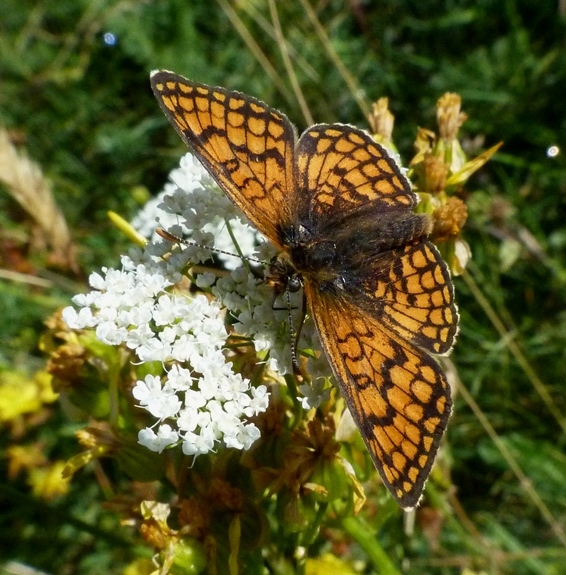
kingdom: Animalia
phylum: Arthropoda
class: Insecta
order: Lepidoptera
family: Nymphalidae
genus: Mellicta
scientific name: Mellicta parthenoides
